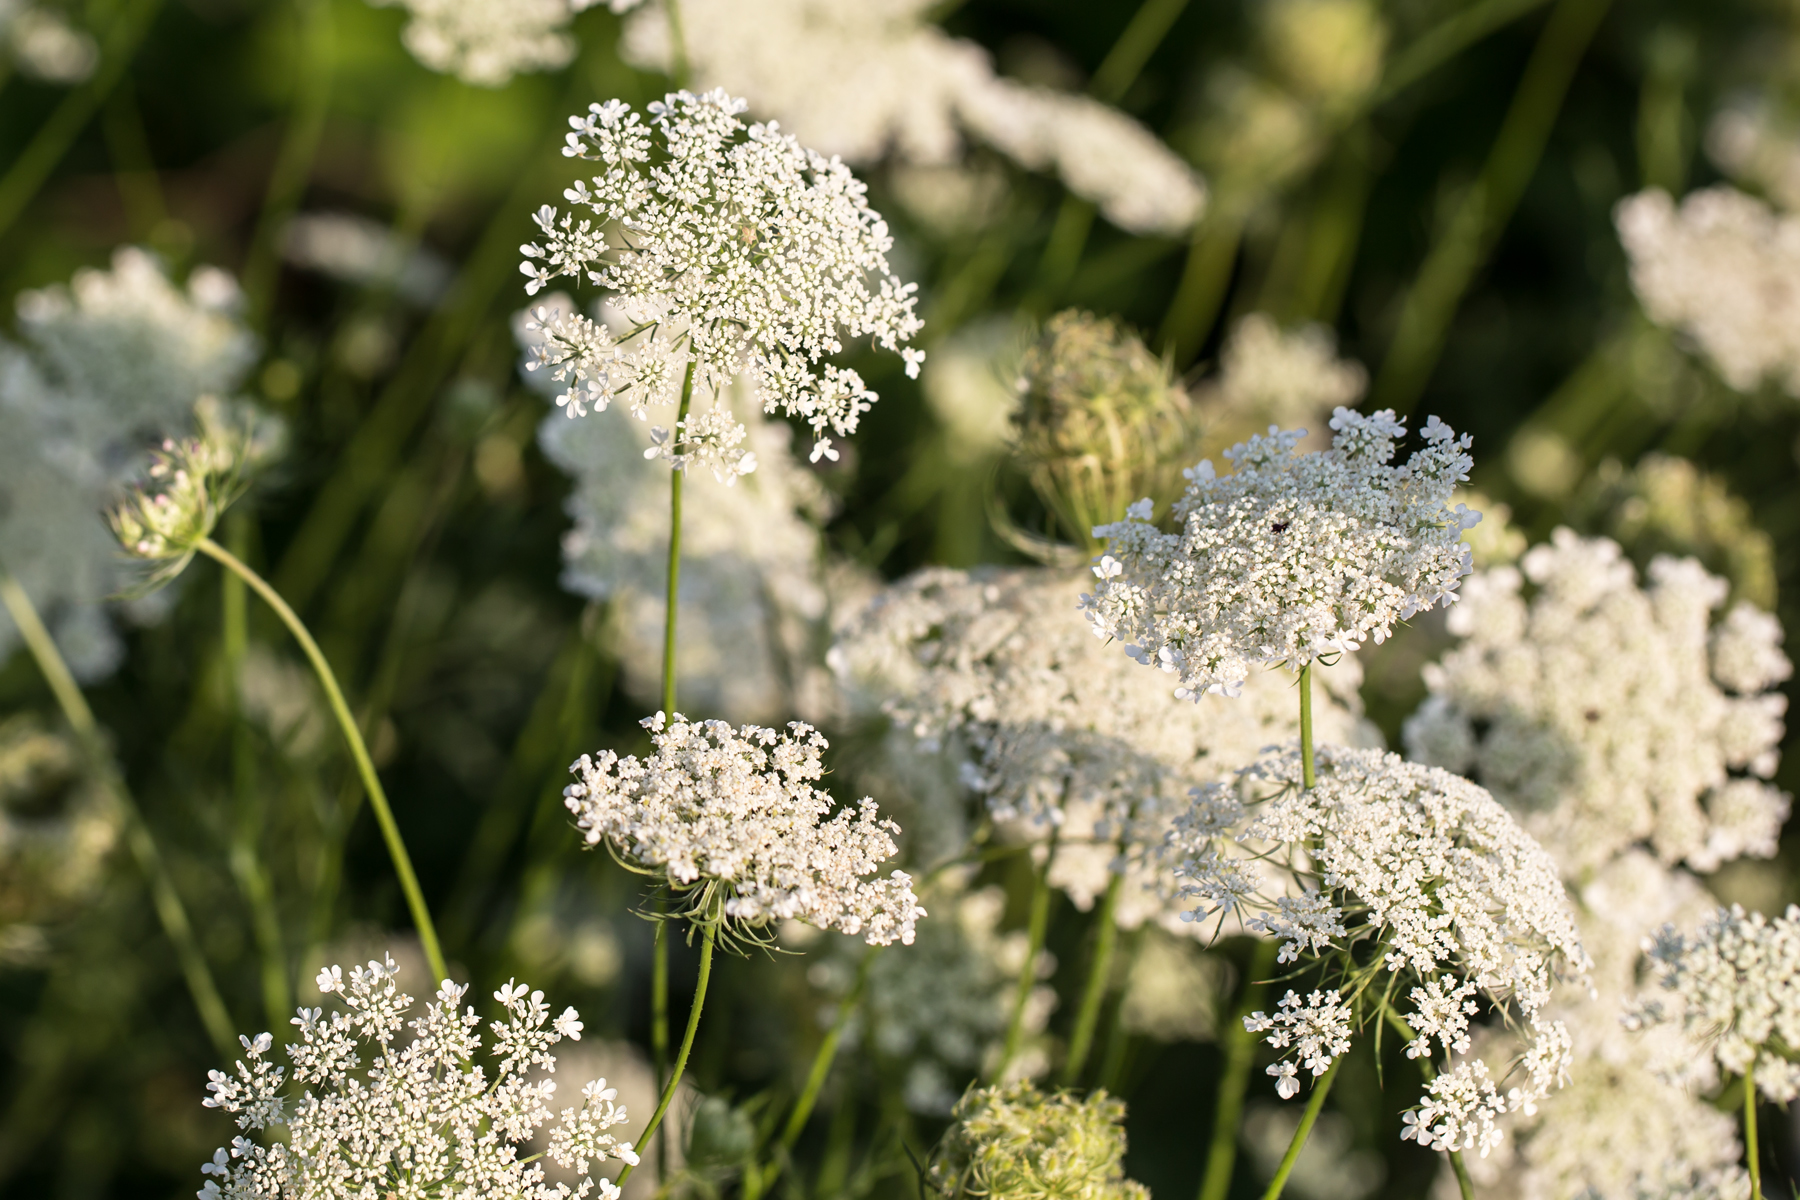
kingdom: Plantae
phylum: Tracheophyta
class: Magnoliopsida
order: Apiales
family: Apiaceae
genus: Daucus
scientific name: Daucus carota
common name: Wild carrot
